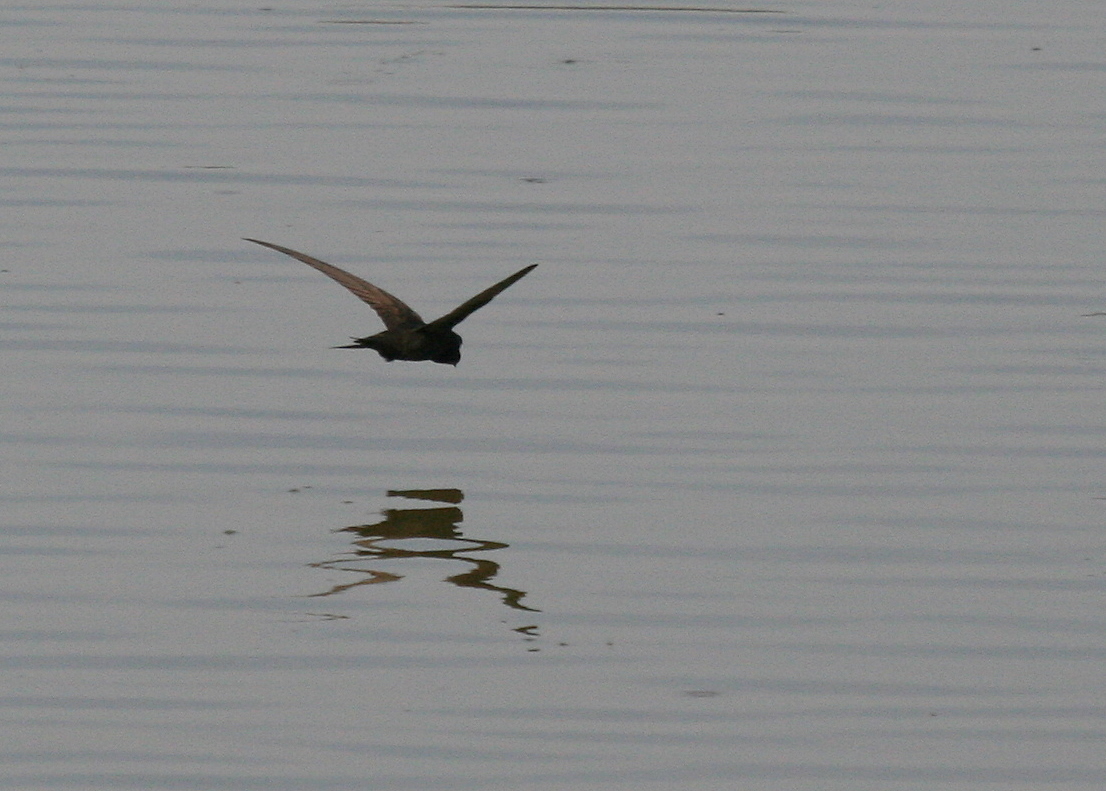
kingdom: Animalia
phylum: Chordata
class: Aves
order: Apodiformes
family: Apodidae
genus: Apus
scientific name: Apus apus
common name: Common swift
